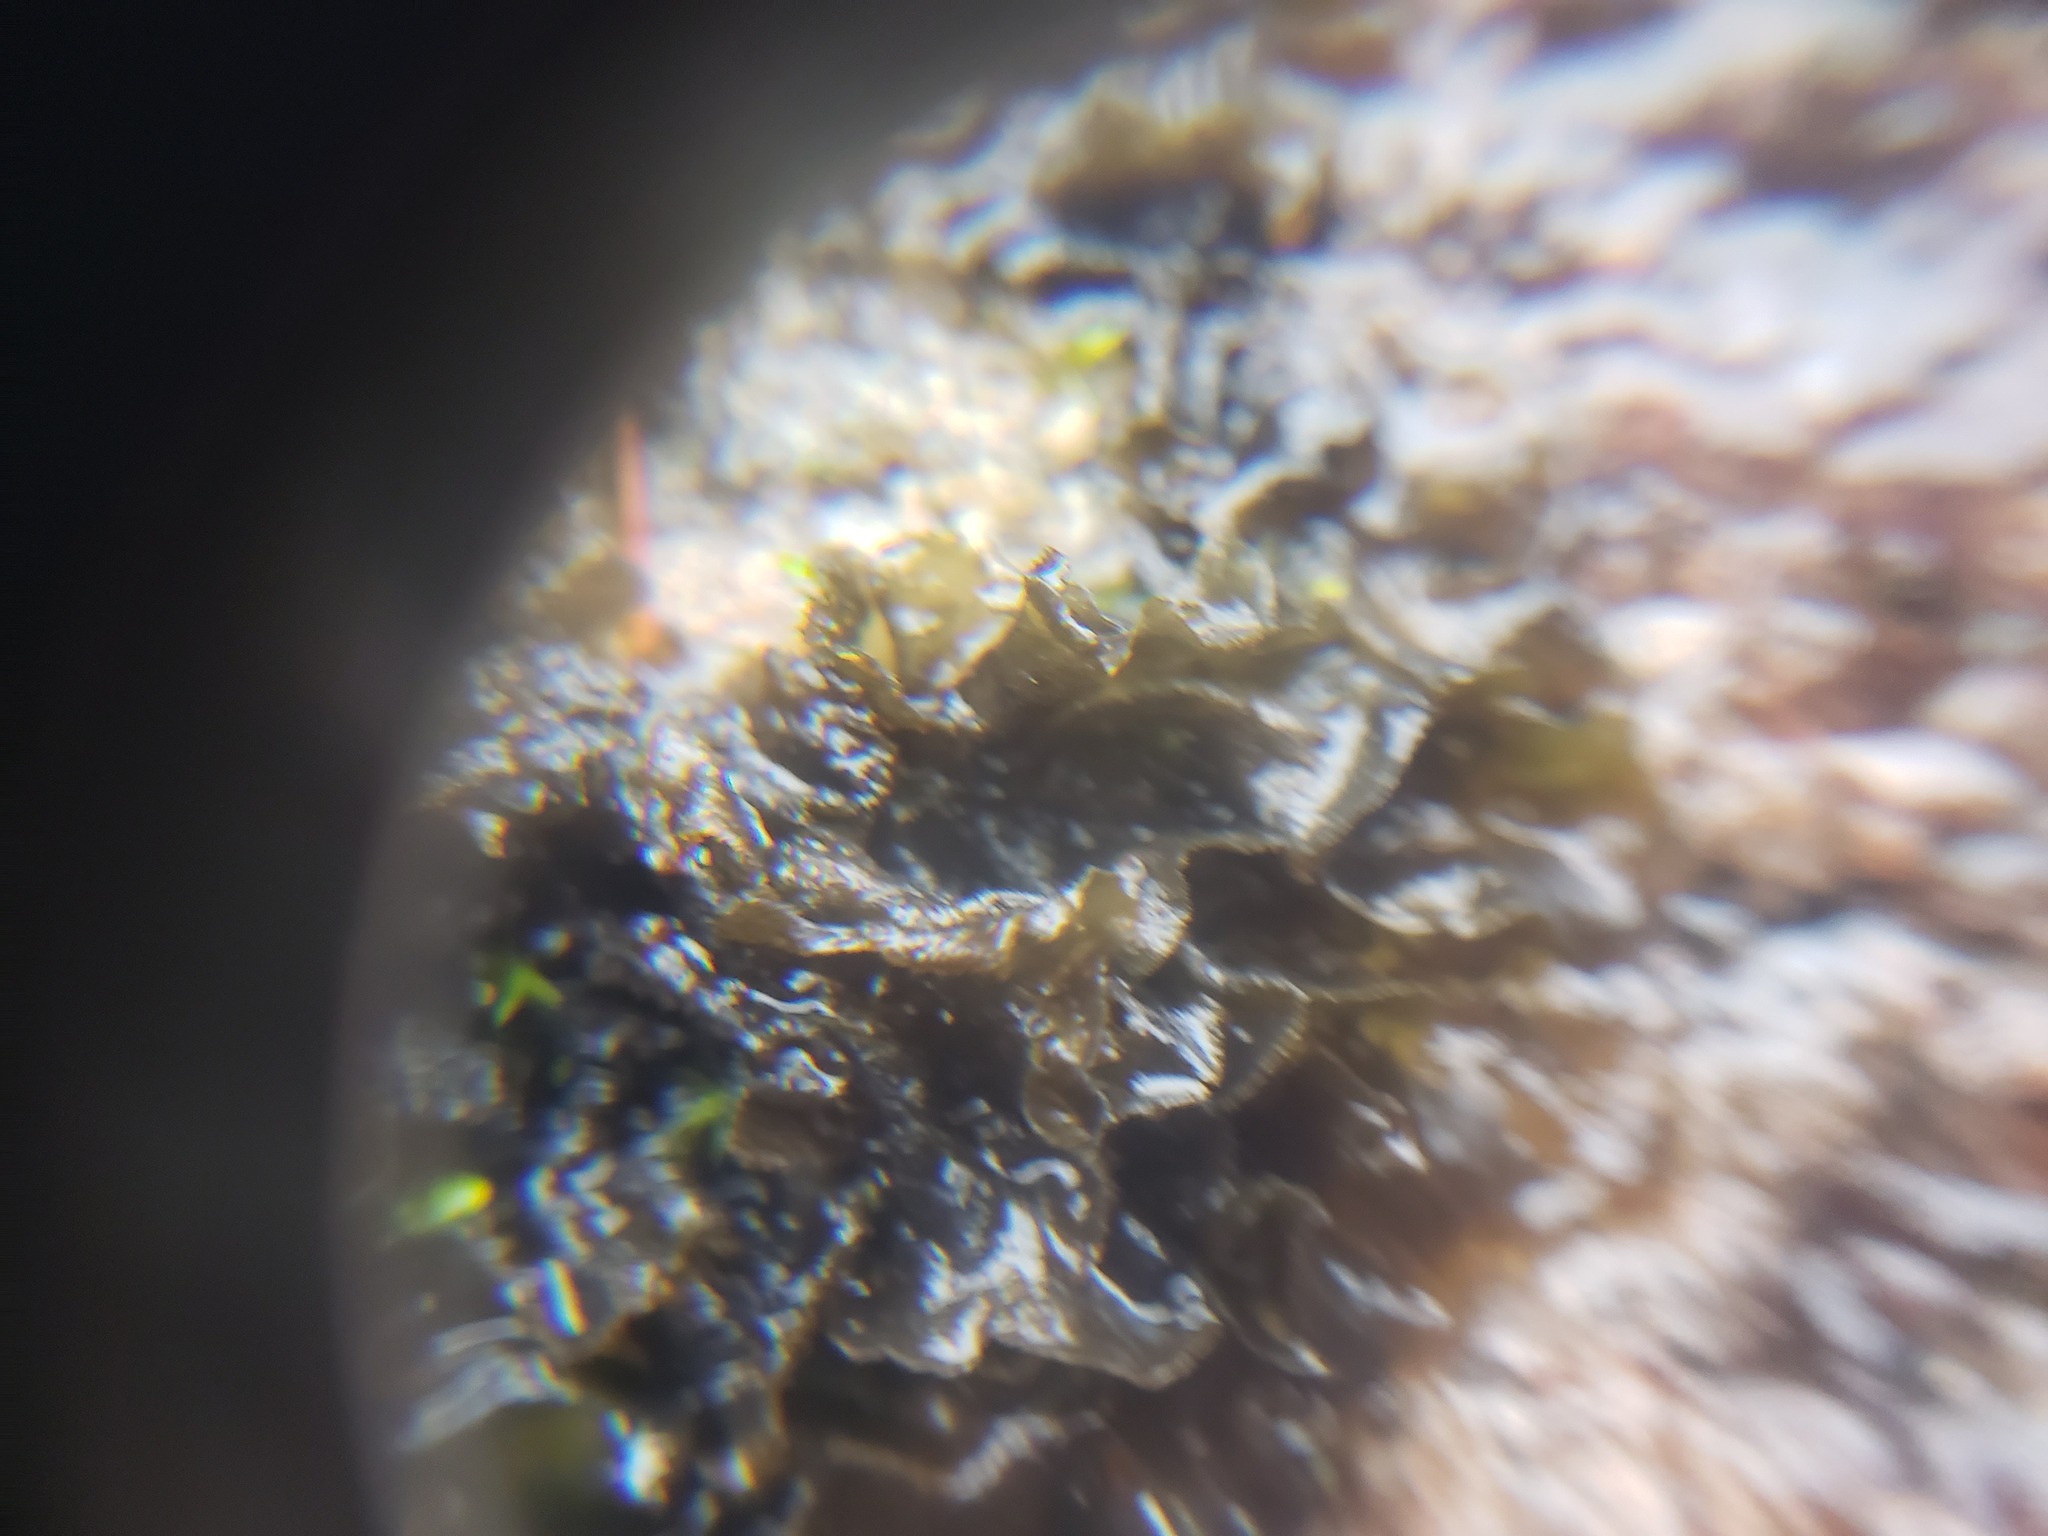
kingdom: Fungi
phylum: Ascomycota
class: Lecanoromycetes
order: Peltigerales
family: Collemataceae
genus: Leptogium
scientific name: Leptogium cyanescens
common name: Blue jellyskin
